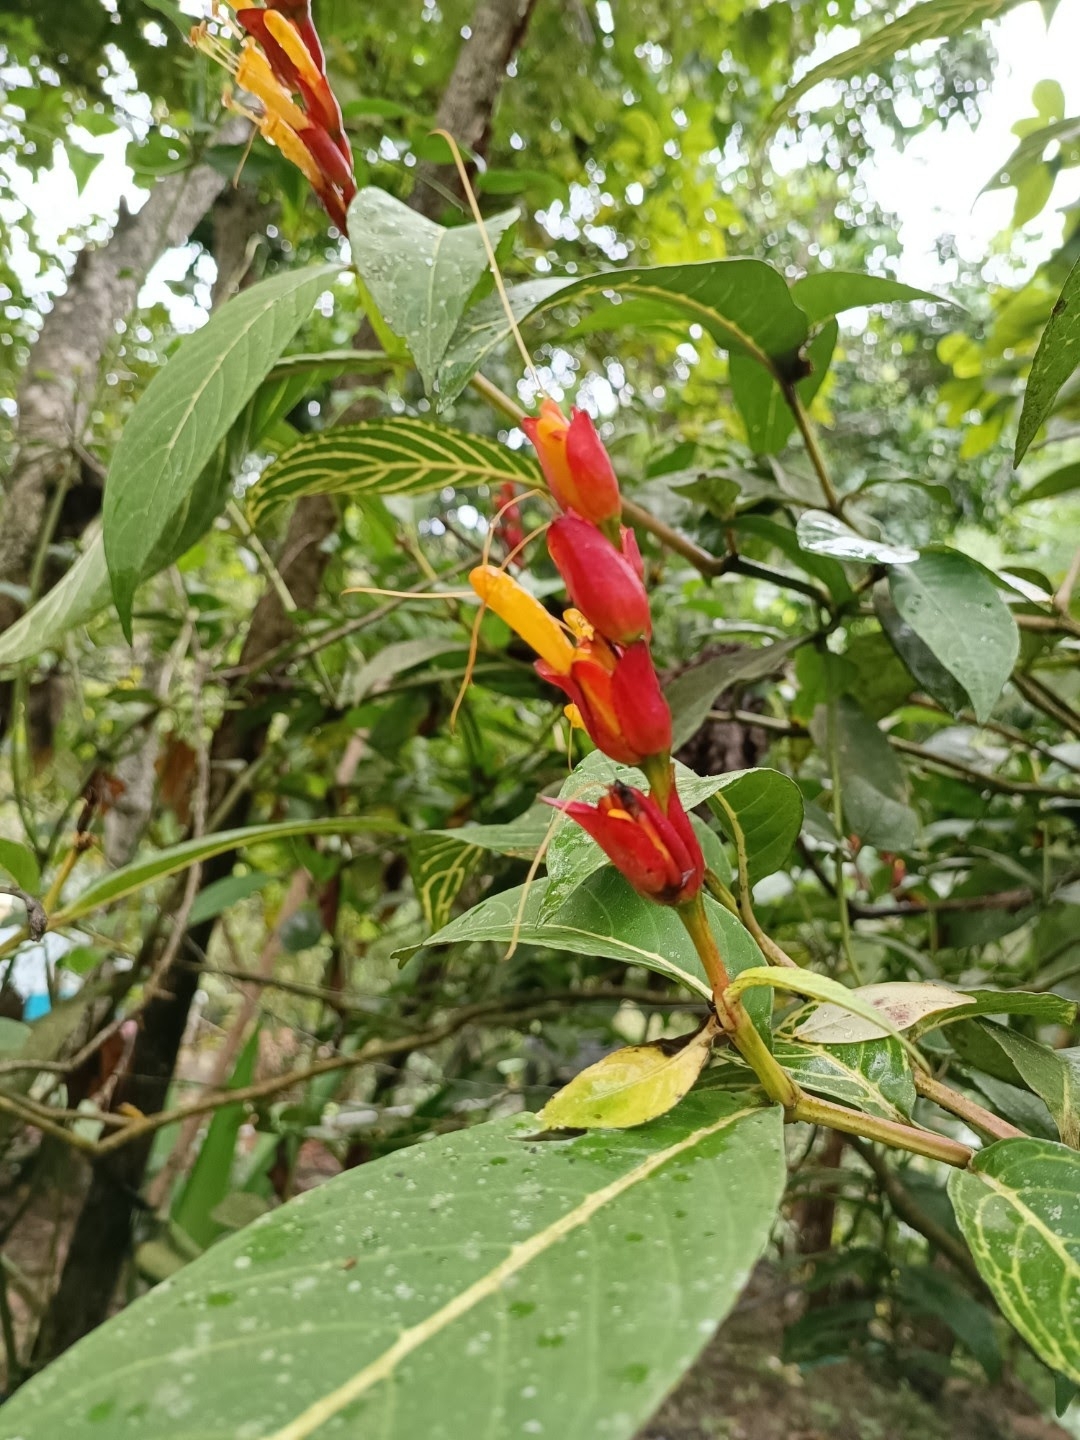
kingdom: Plantae
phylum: Tracheophyta
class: Magnoliopsida
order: Lamiales
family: Acanthaceae
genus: Sanchezia
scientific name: Sanchezia oblonga
